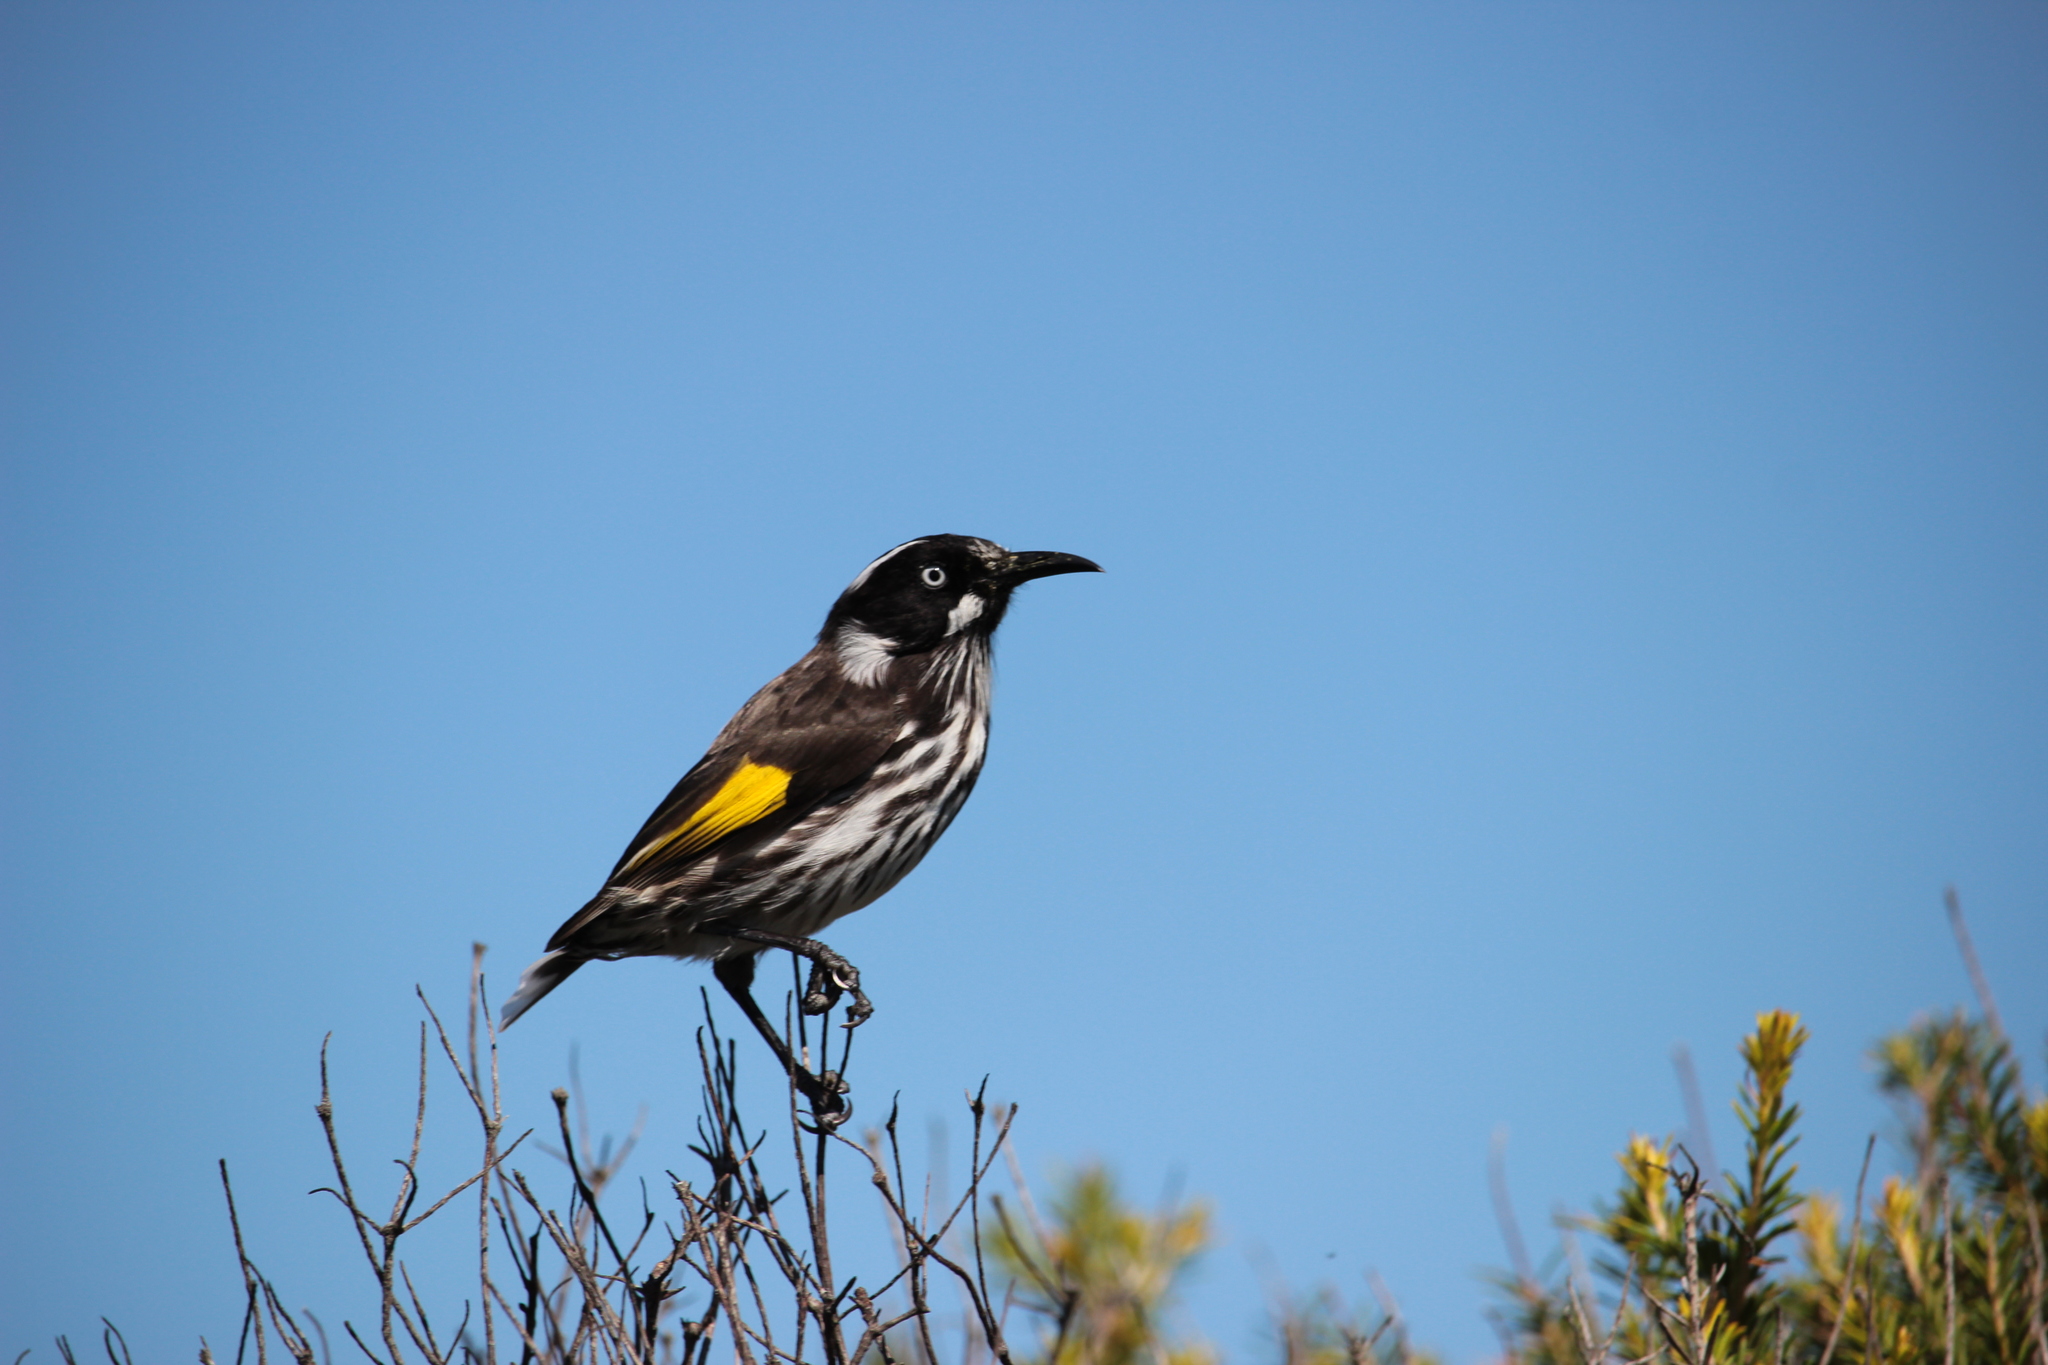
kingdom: Animalia
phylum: Chordata
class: Aves
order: Passeriformes
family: Meliphagidae
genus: Phylidonyris
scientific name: Phylidonyris novaehollandiae
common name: New holland honeyeater
